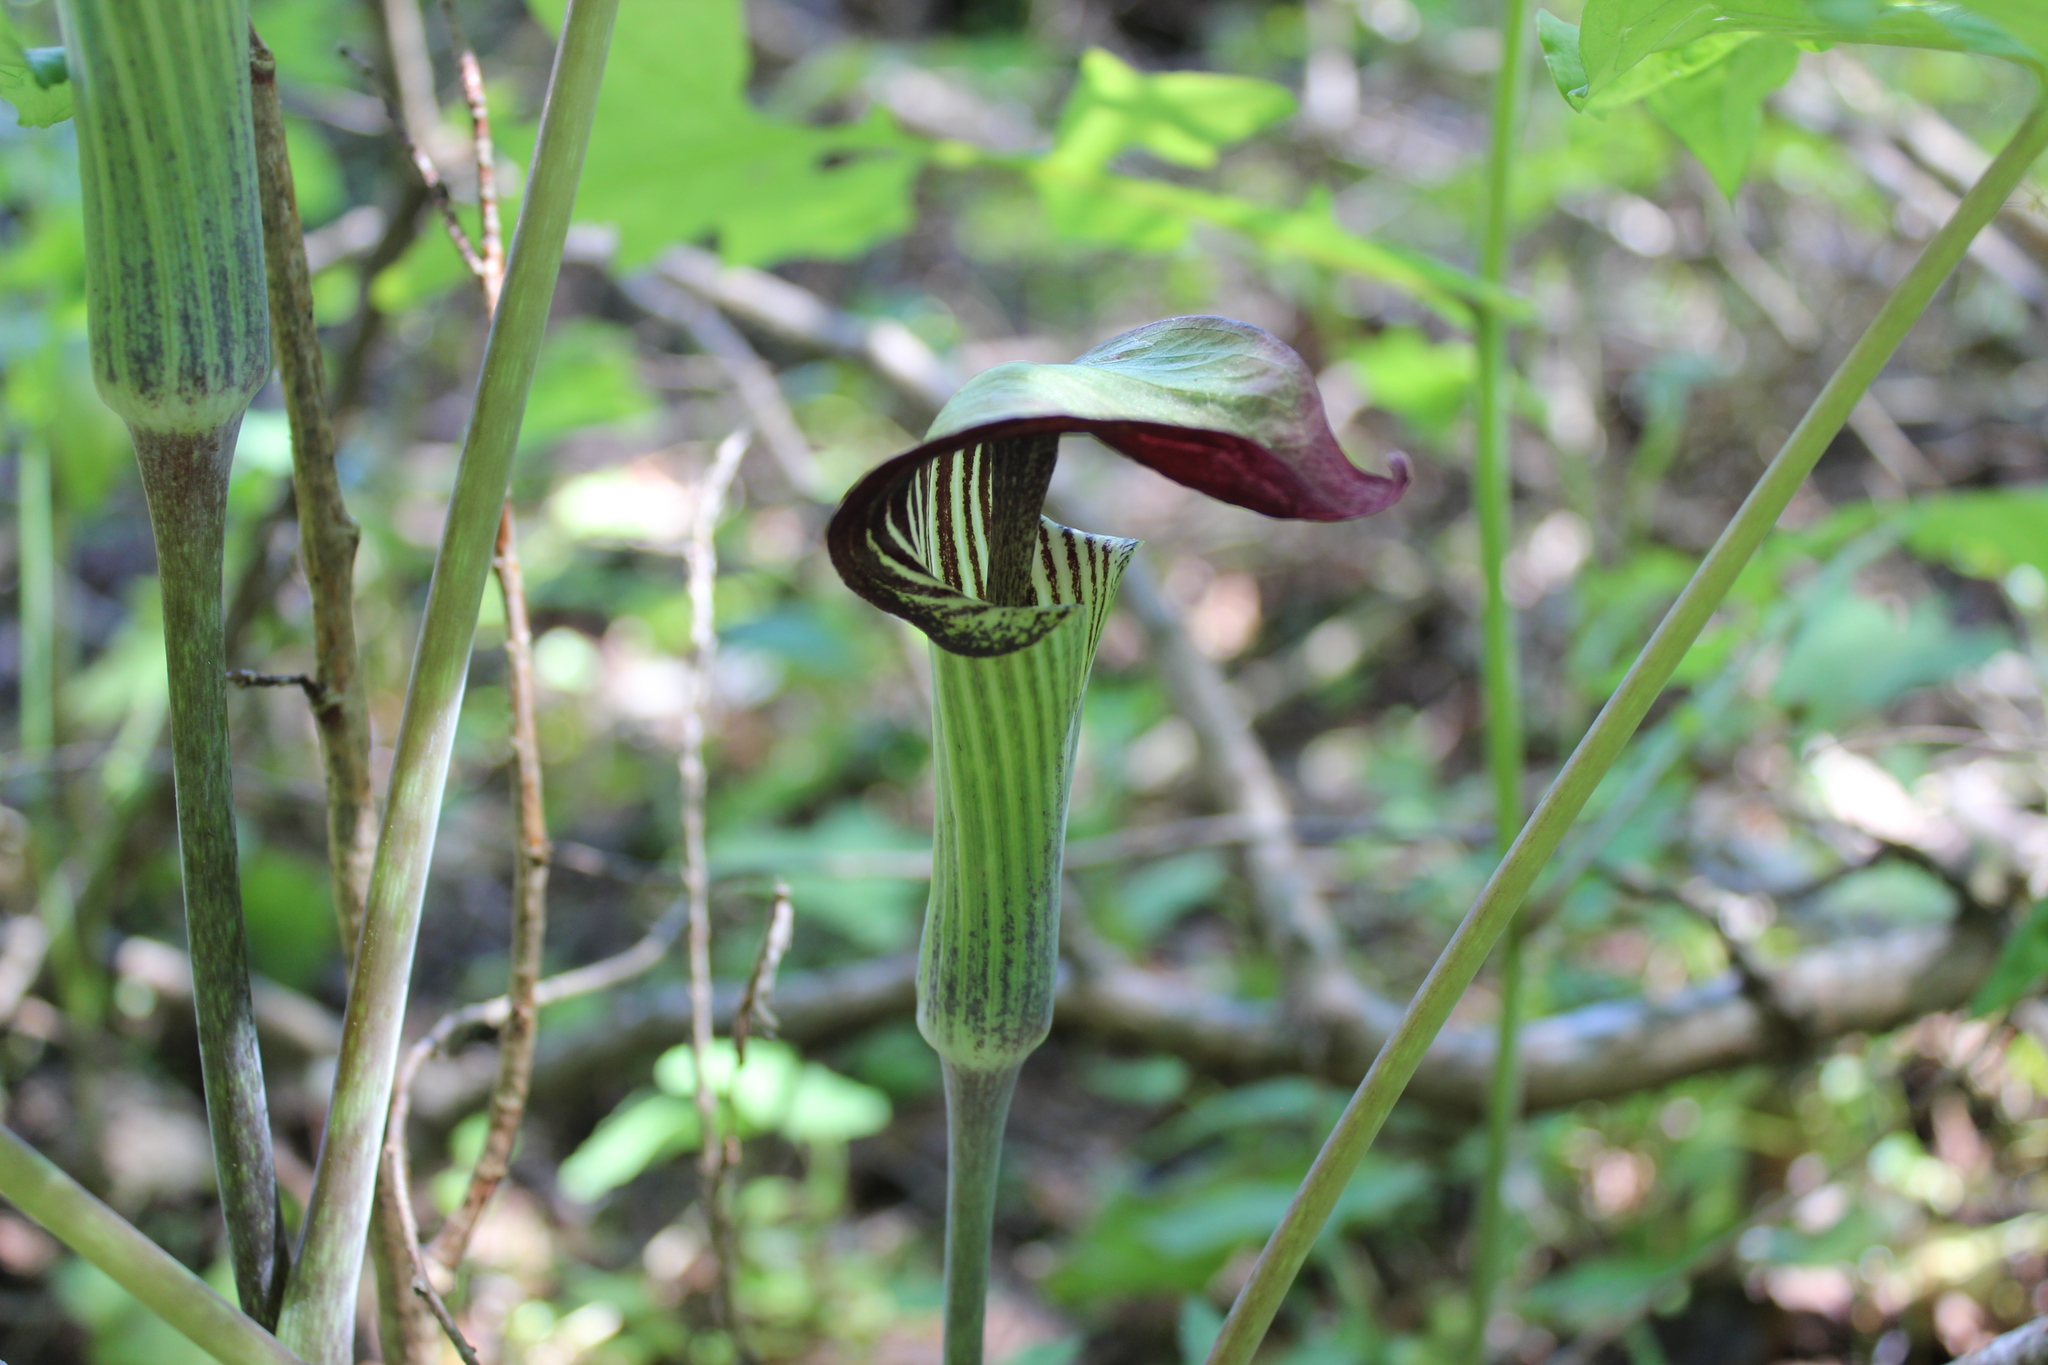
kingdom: Plantae
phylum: Tracheophyta
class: Liliopsida
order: Alismatales
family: Araceae
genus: Arisaema
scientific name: Arisaema triphyllum
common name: Jack-in-the-pulpit
